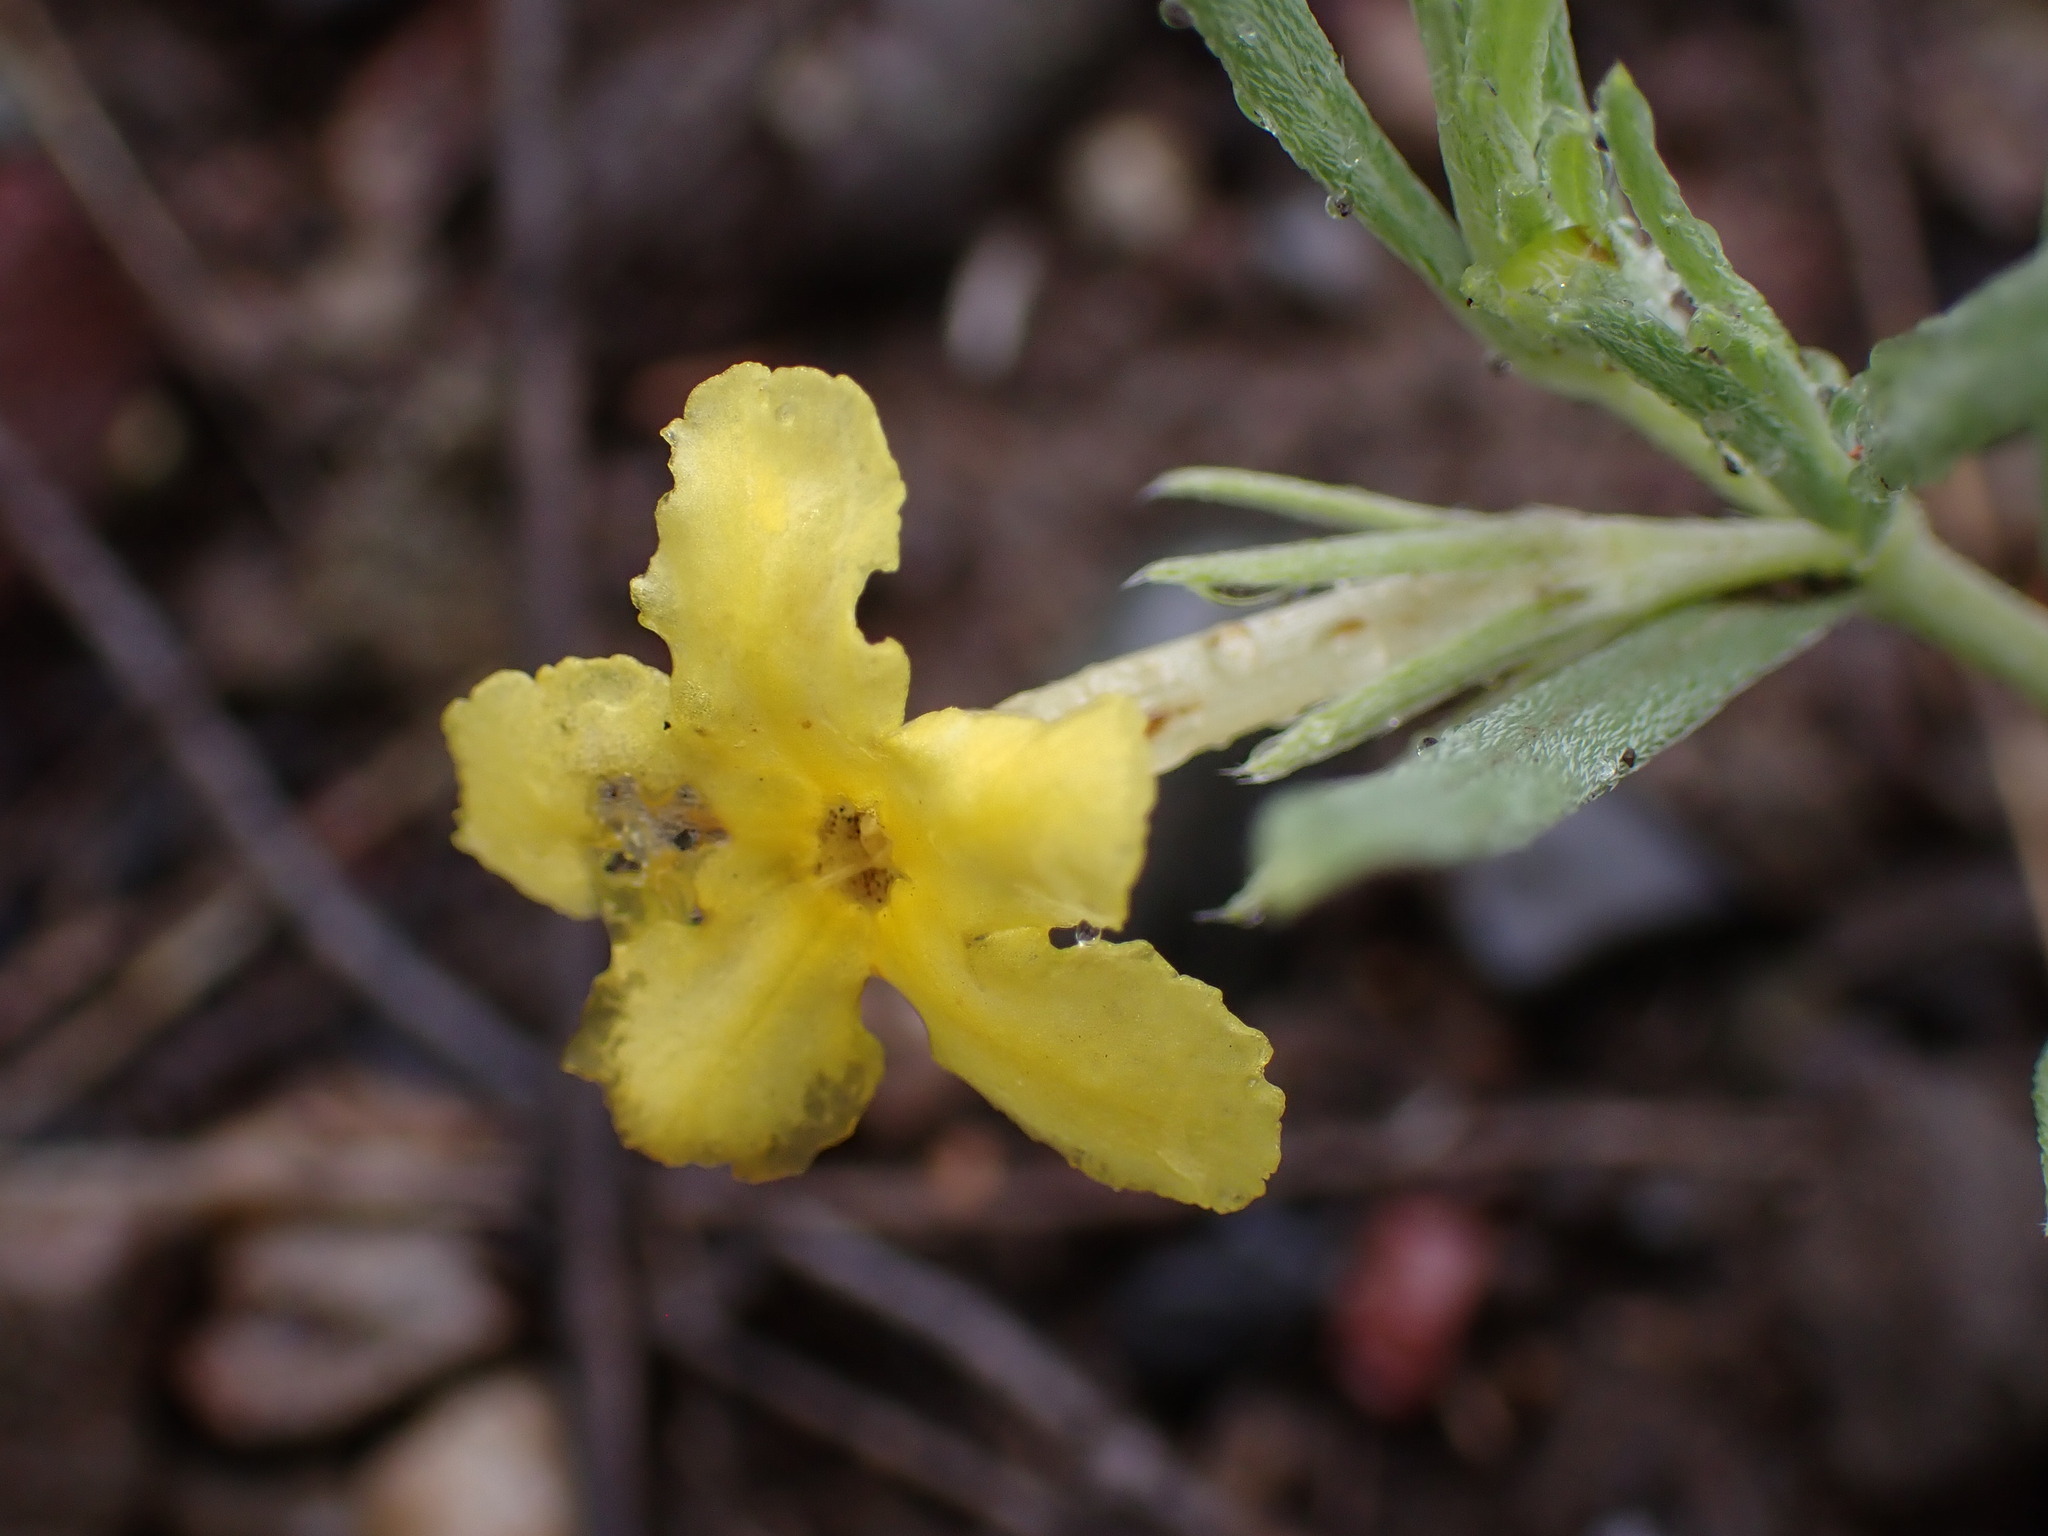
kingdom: Plantae
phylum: Tracheophyta
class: Magnoliopsida
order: Boraginales
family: Boraginaceae
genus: Lithospermum
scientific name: Lithospermum incisum
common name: Fringed gromwell
